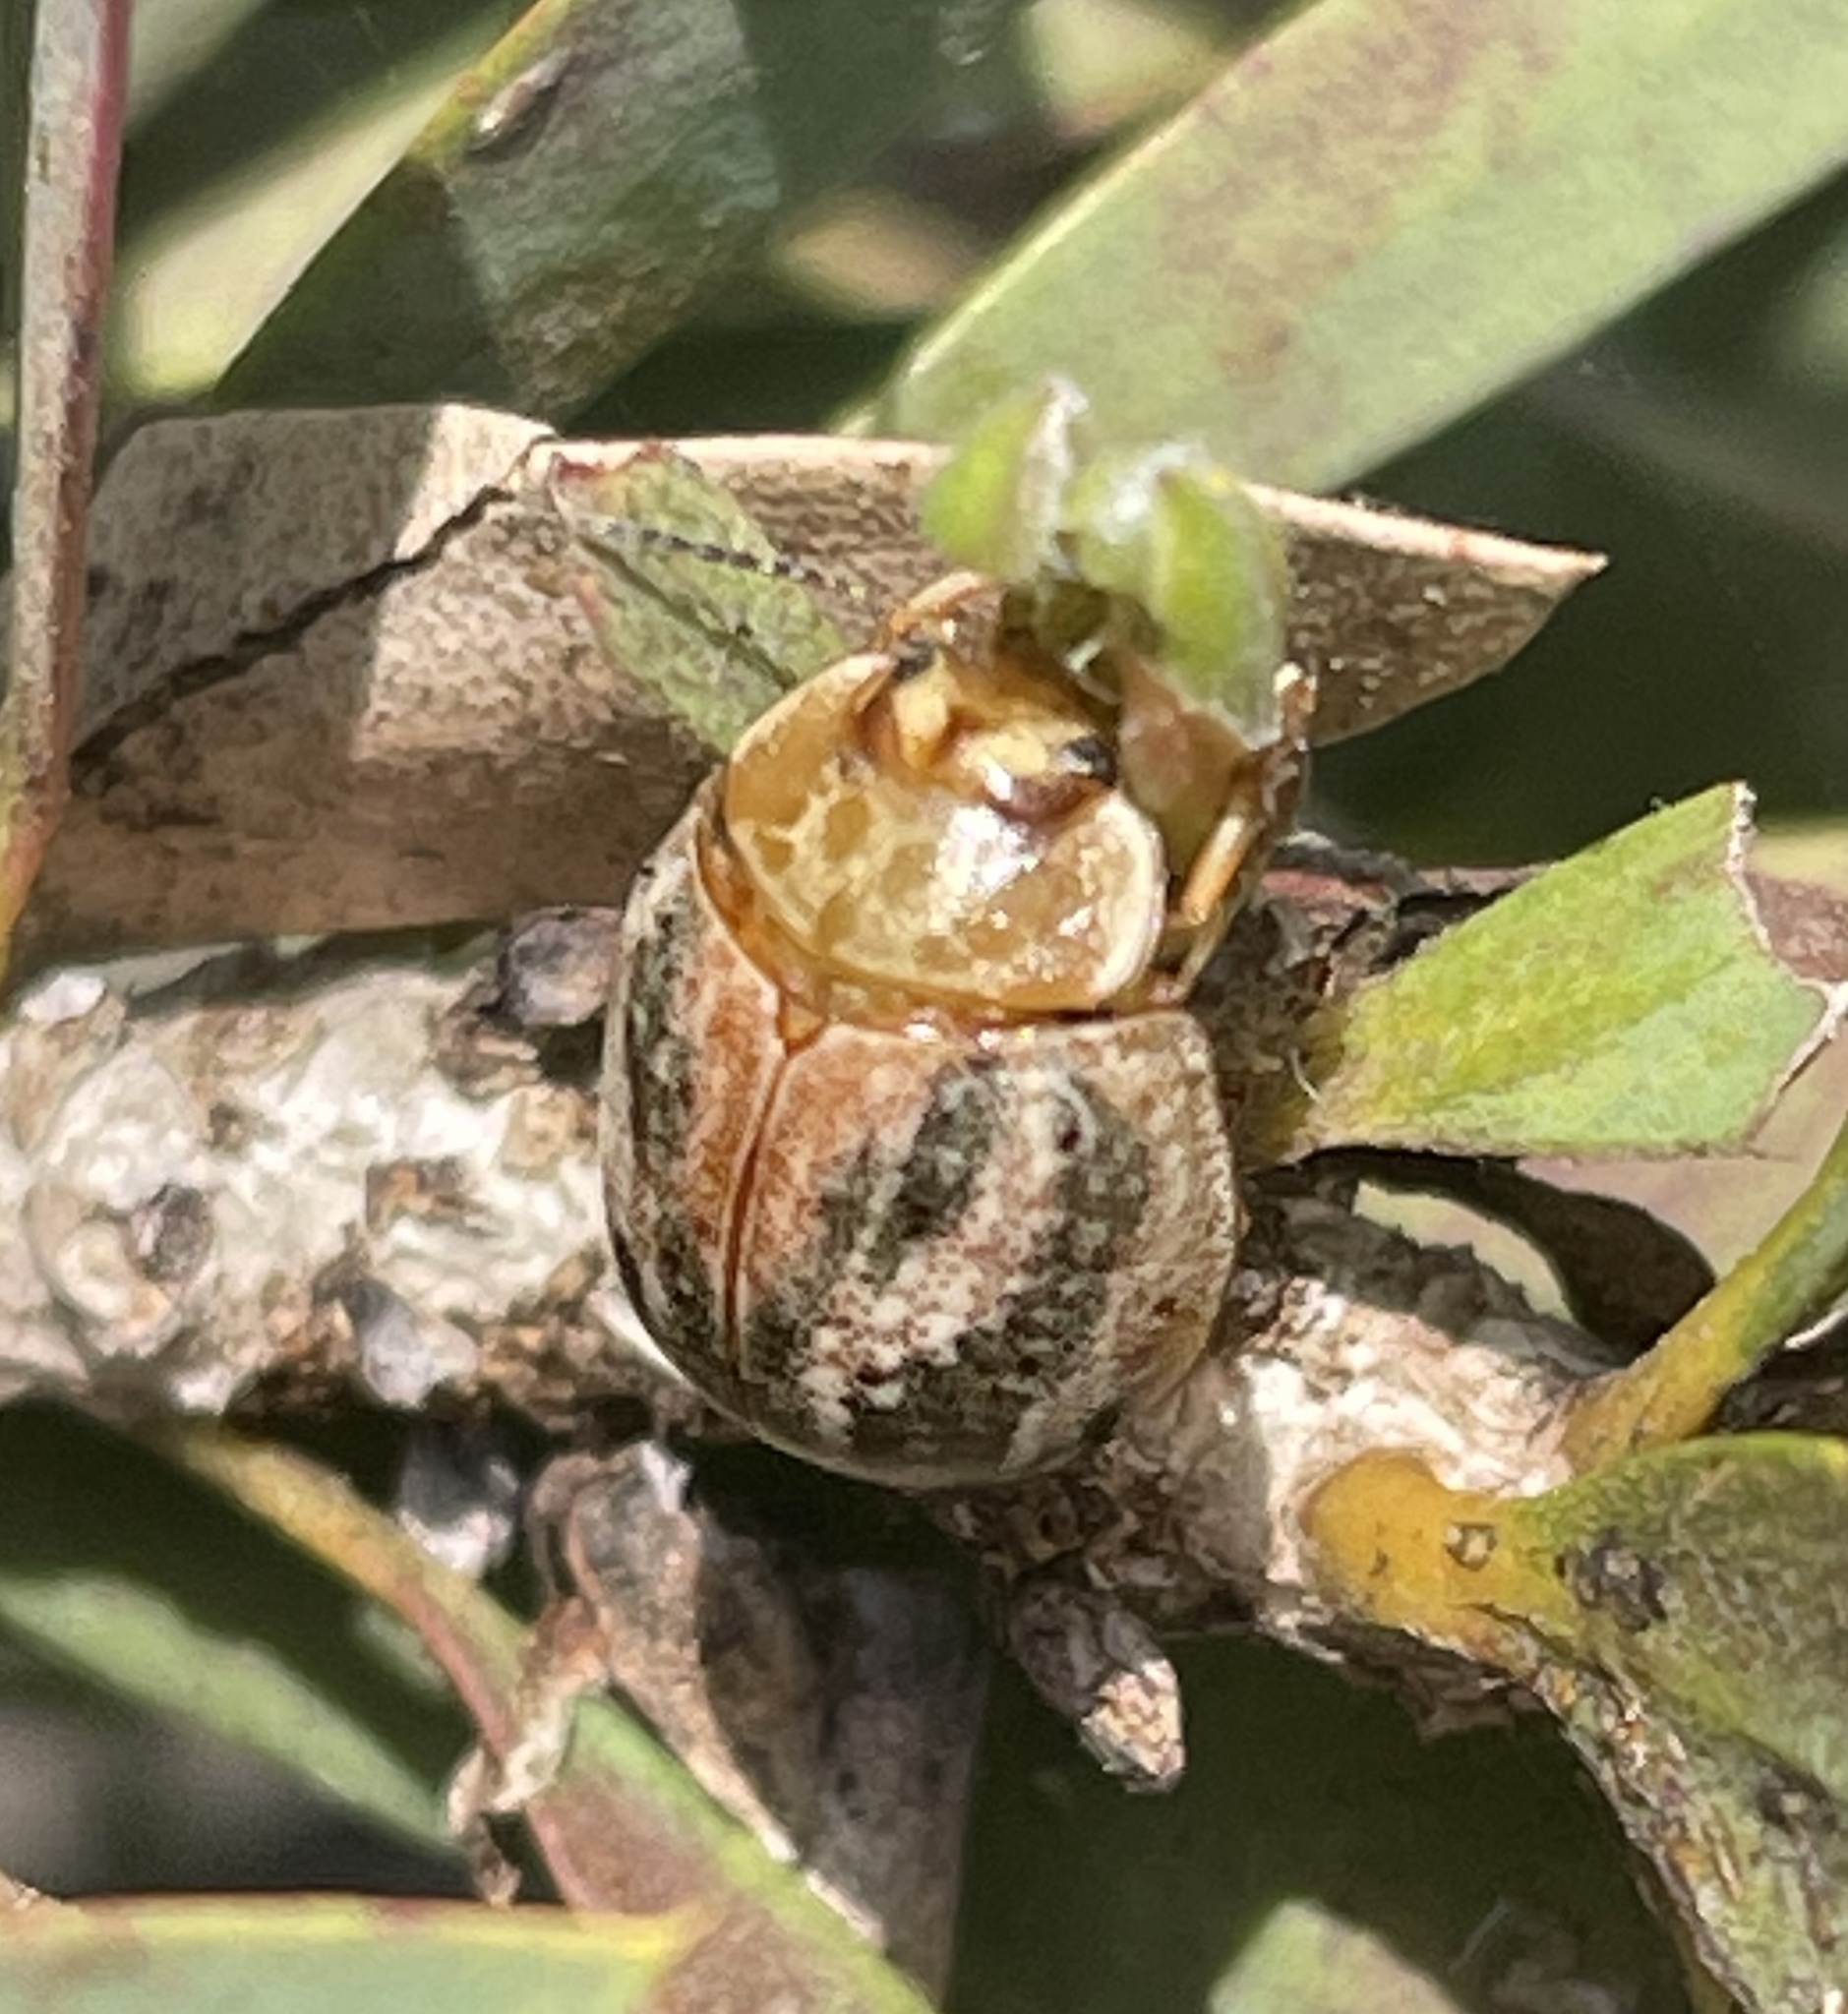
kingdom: Animalia
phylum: Arthropoda
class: Insecta
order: Coleoptera
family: Chrysomelidae
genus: Paropsisterna
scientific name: Paropsisterna
